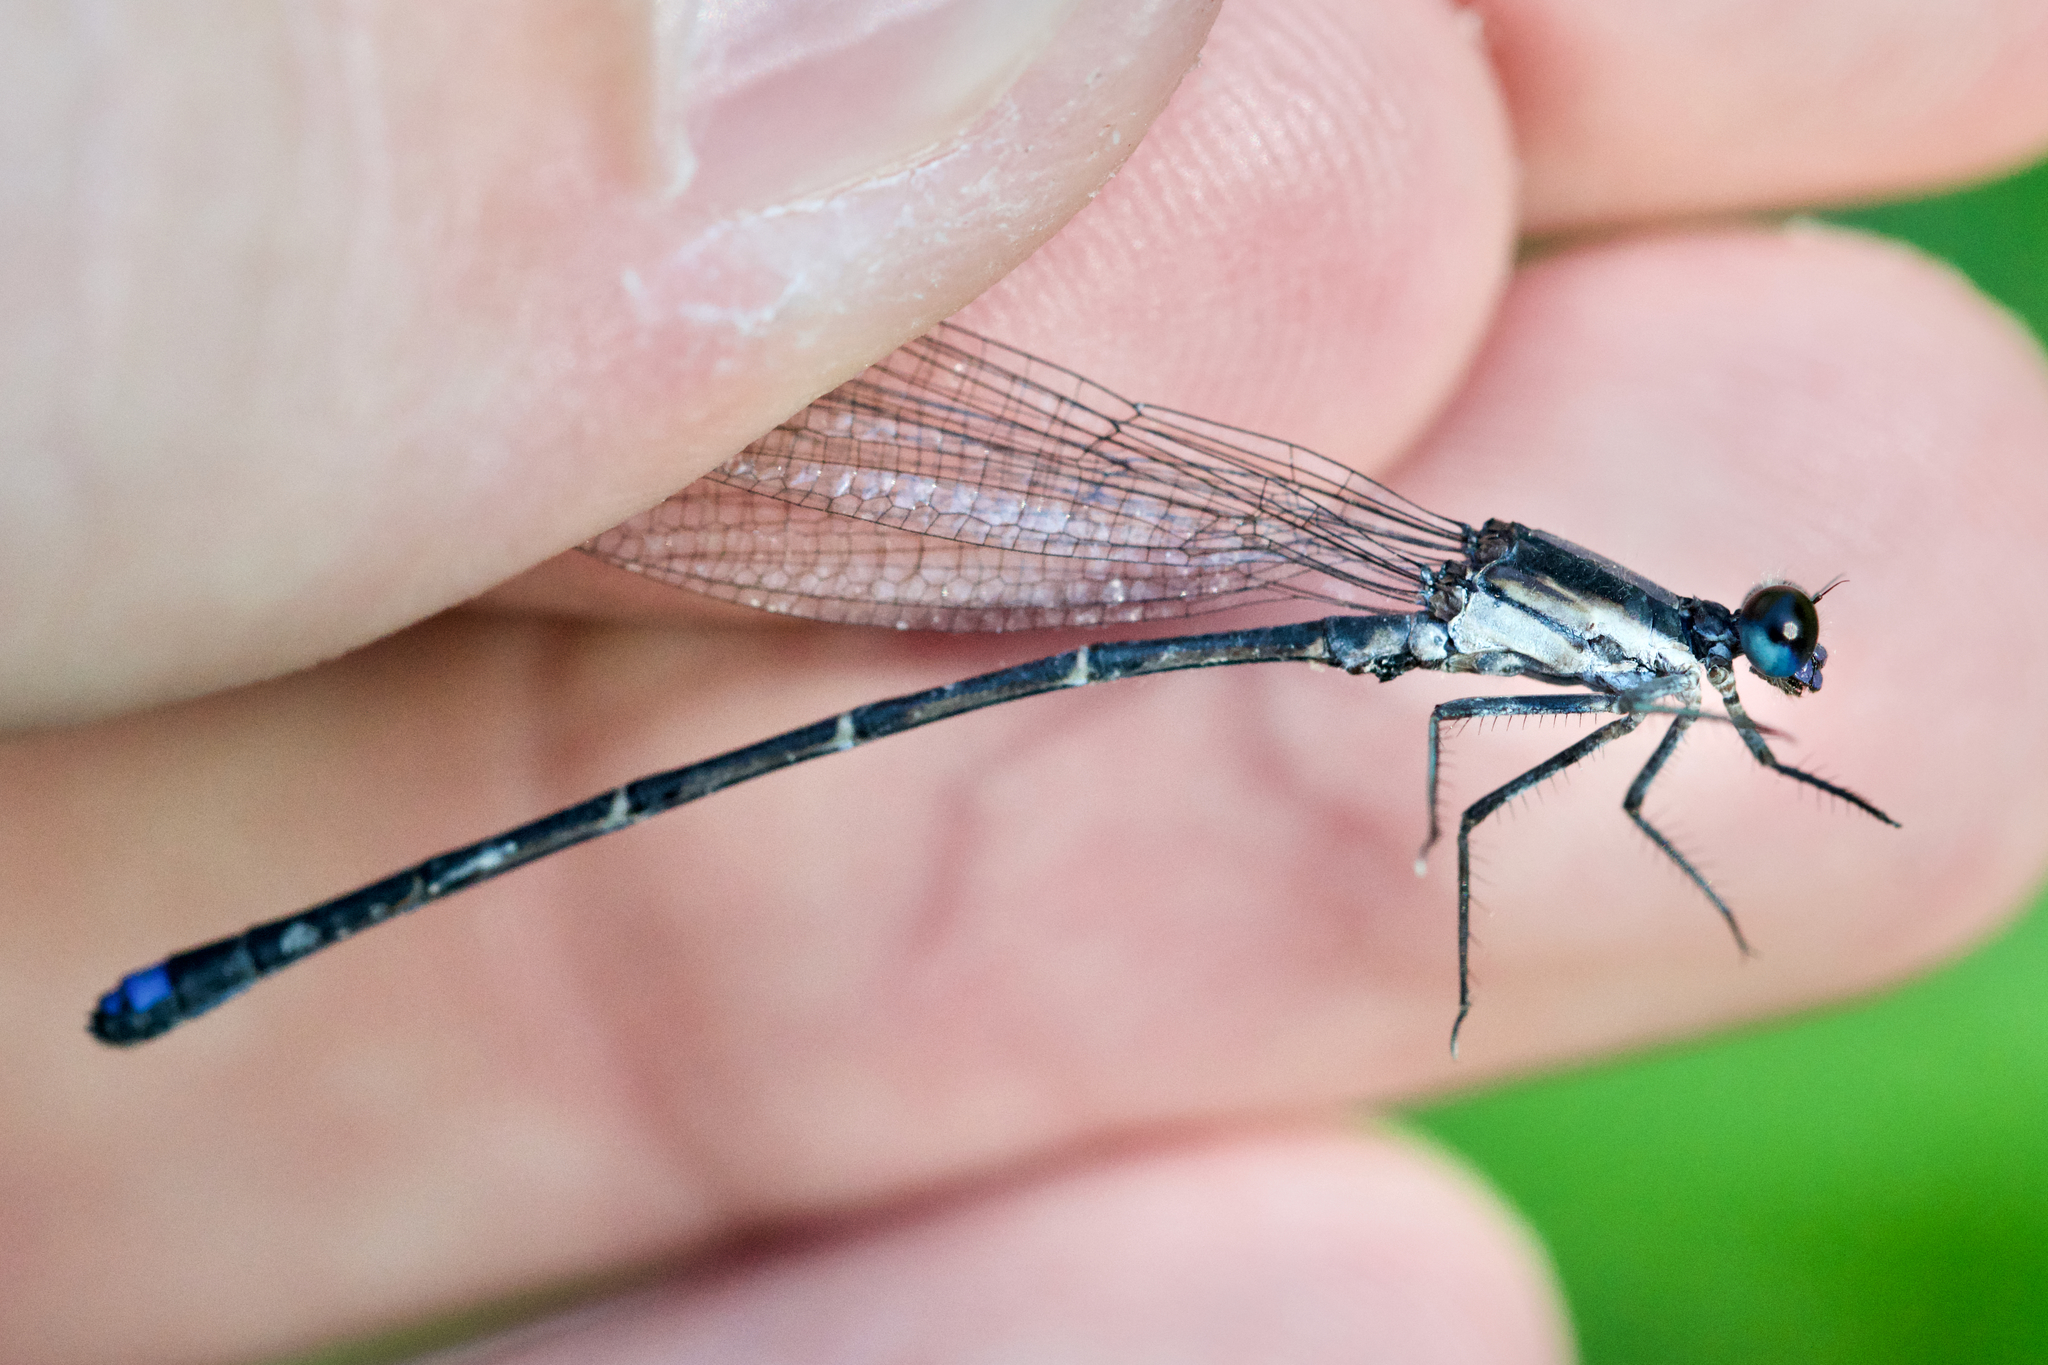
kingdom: Animalia
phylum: Arthropoda
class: Insecta
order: Odonata
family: Coenagrionidae
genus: Argia
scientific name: Argia tibialis
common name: Blue-tipped dancer
